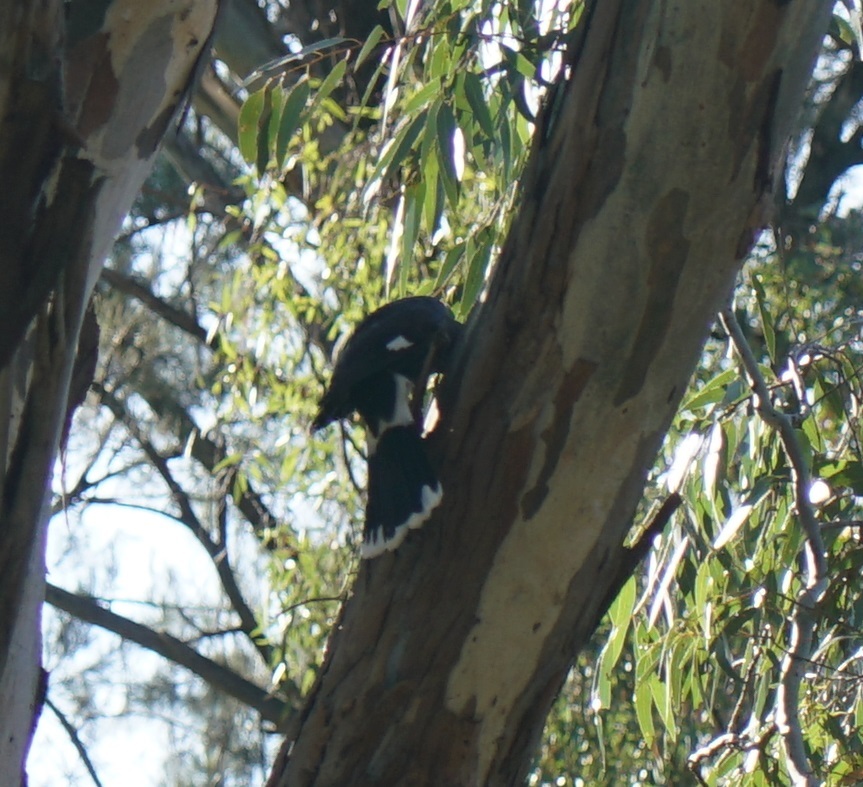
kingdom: Animalia
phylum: Chordata
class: Aves
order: Passeriformes
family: Cracticidae
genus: Strepera
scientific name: Strepera graculina
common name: Pied currawong
